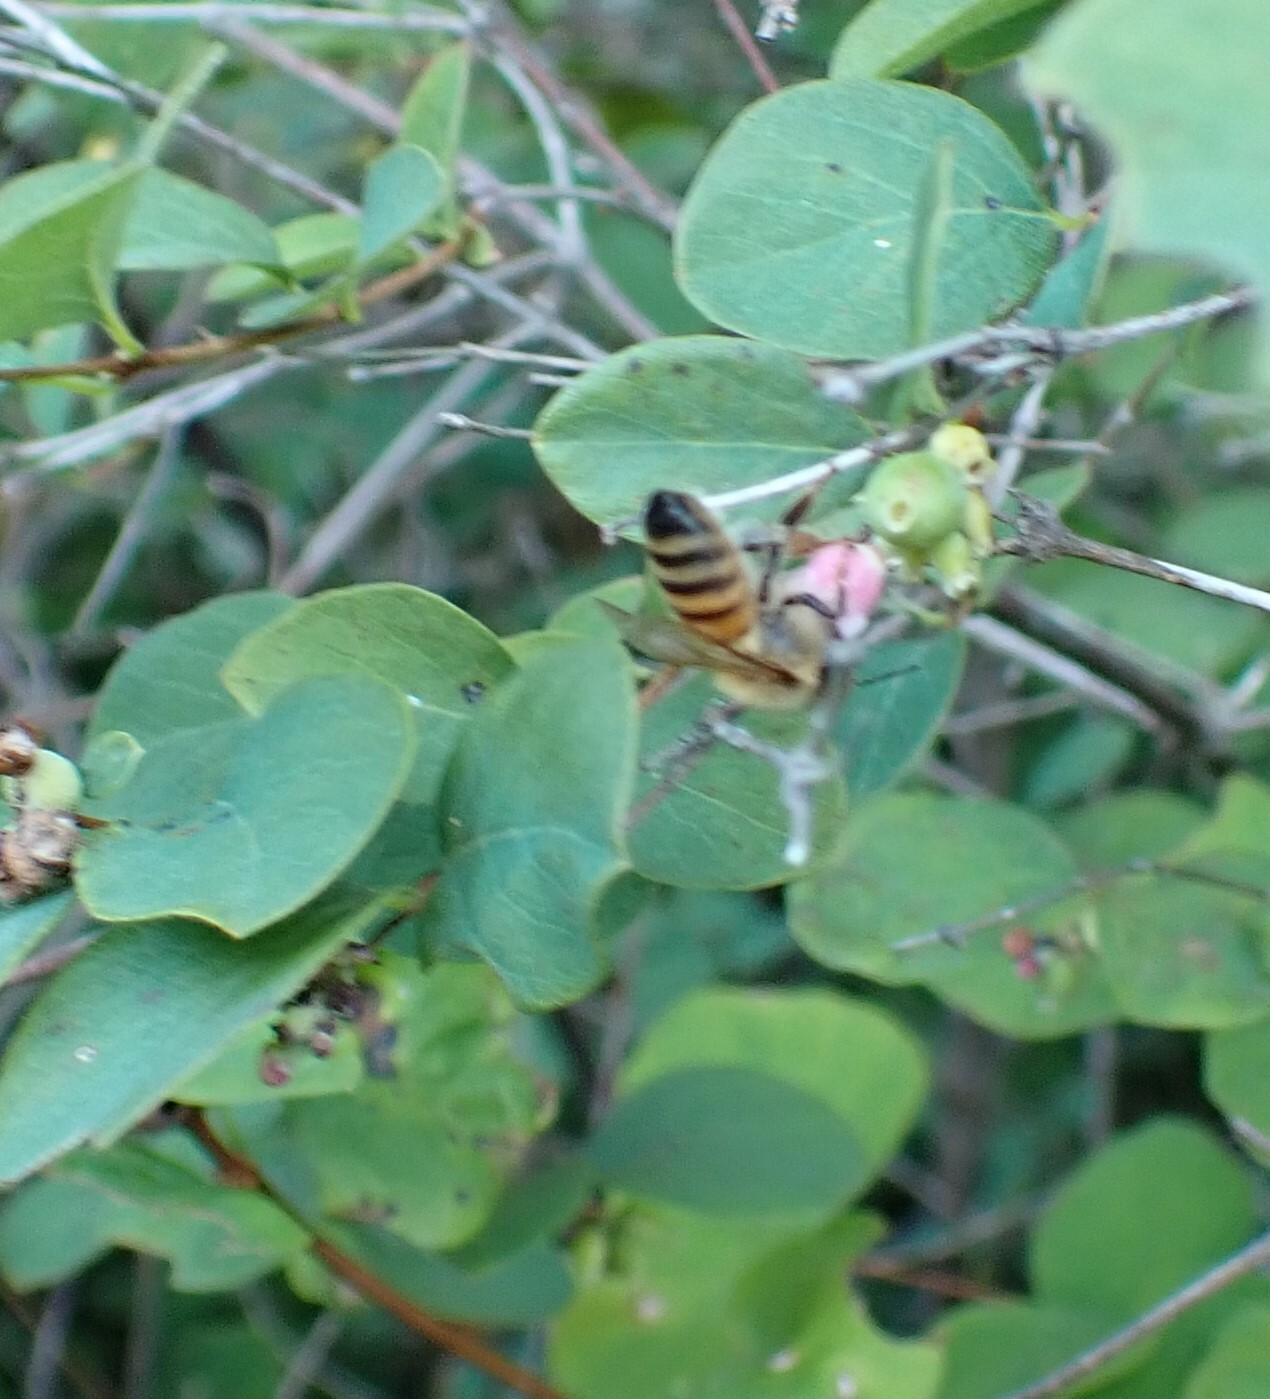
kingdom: Animalia
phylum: Arthropoda
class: Insecta
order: Hymenoptera
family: Apidae
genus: Apis
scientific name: Apis mellifera
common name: Honey bee
